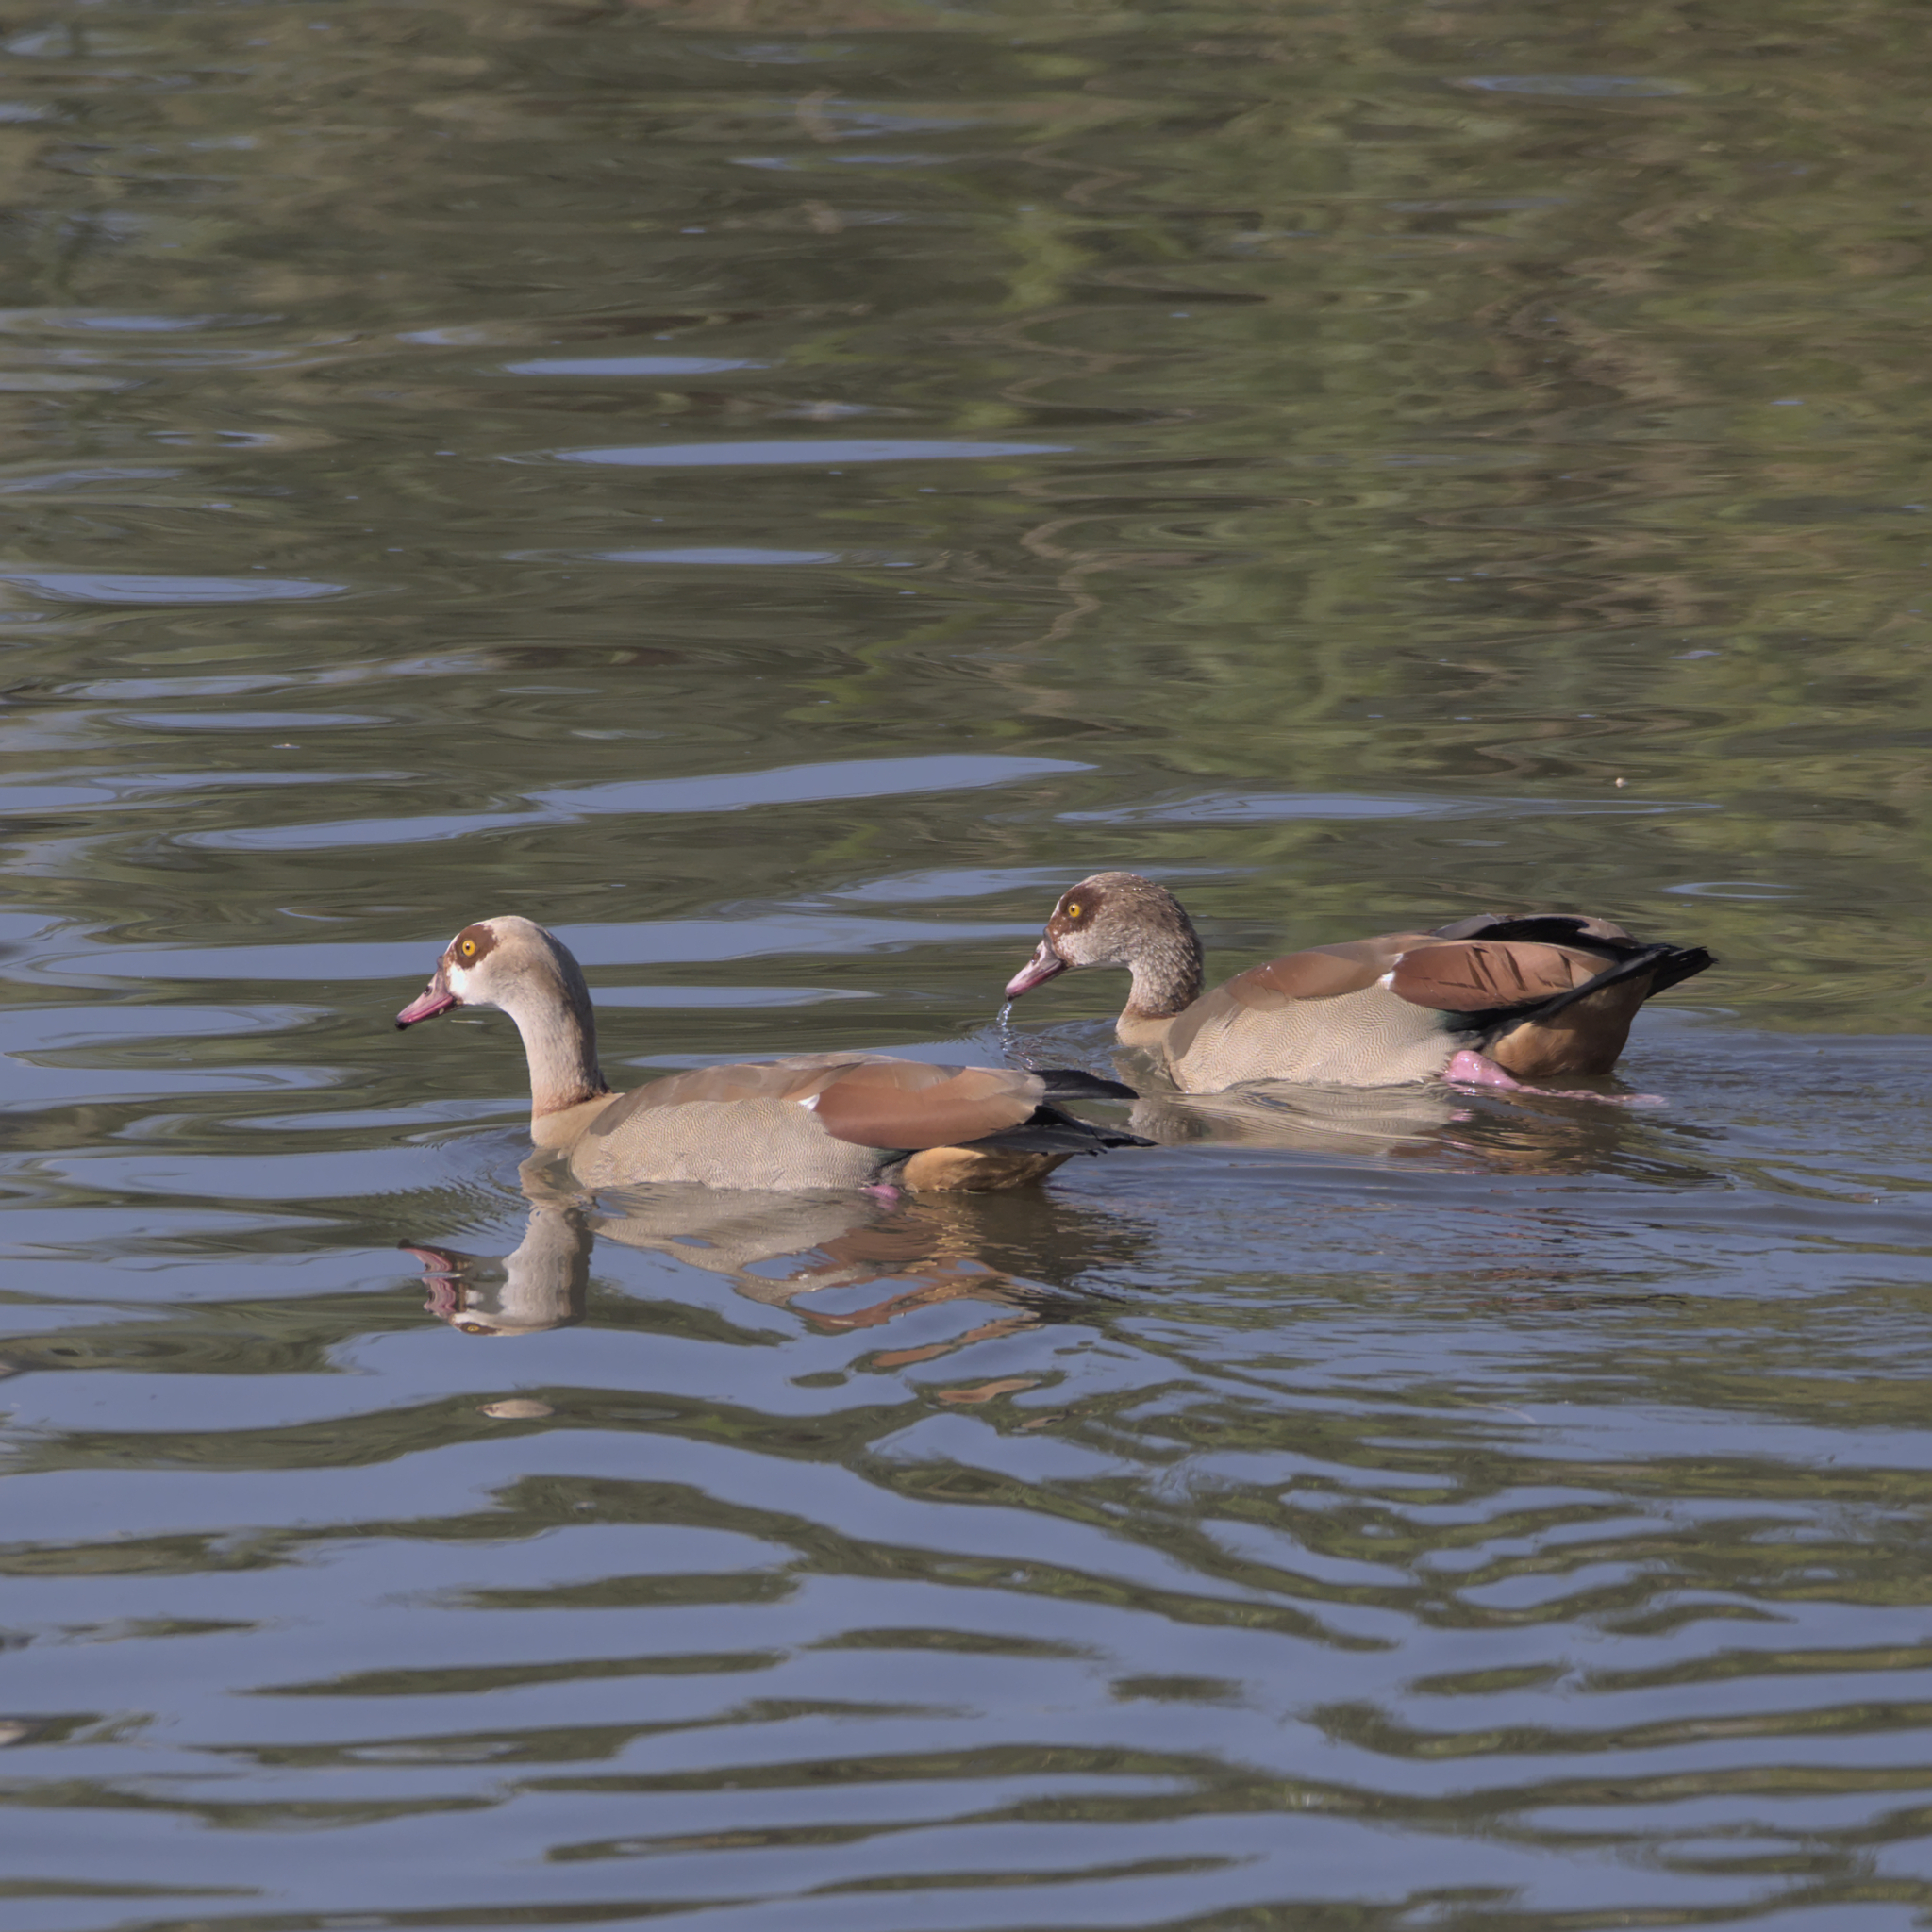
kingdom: Animalia
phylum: Chordata
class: Aves
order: Anseriformes
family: Anatidae
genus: Alopochen
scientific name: Alopochen aegyptiaca
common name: Egyptian goose
